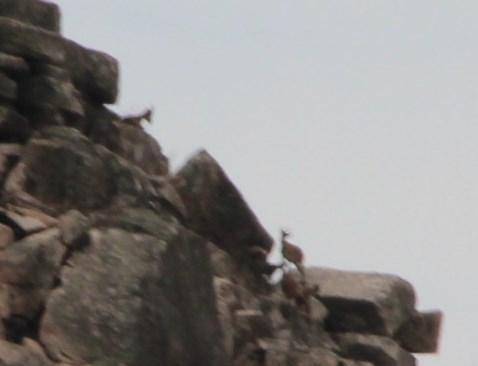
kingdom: Animalia
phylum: Chordata
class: Mammalia
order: Artiodactyla
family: Bovidae
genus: Capra
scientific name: Capra pyrenaica
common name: Spanish ibex
